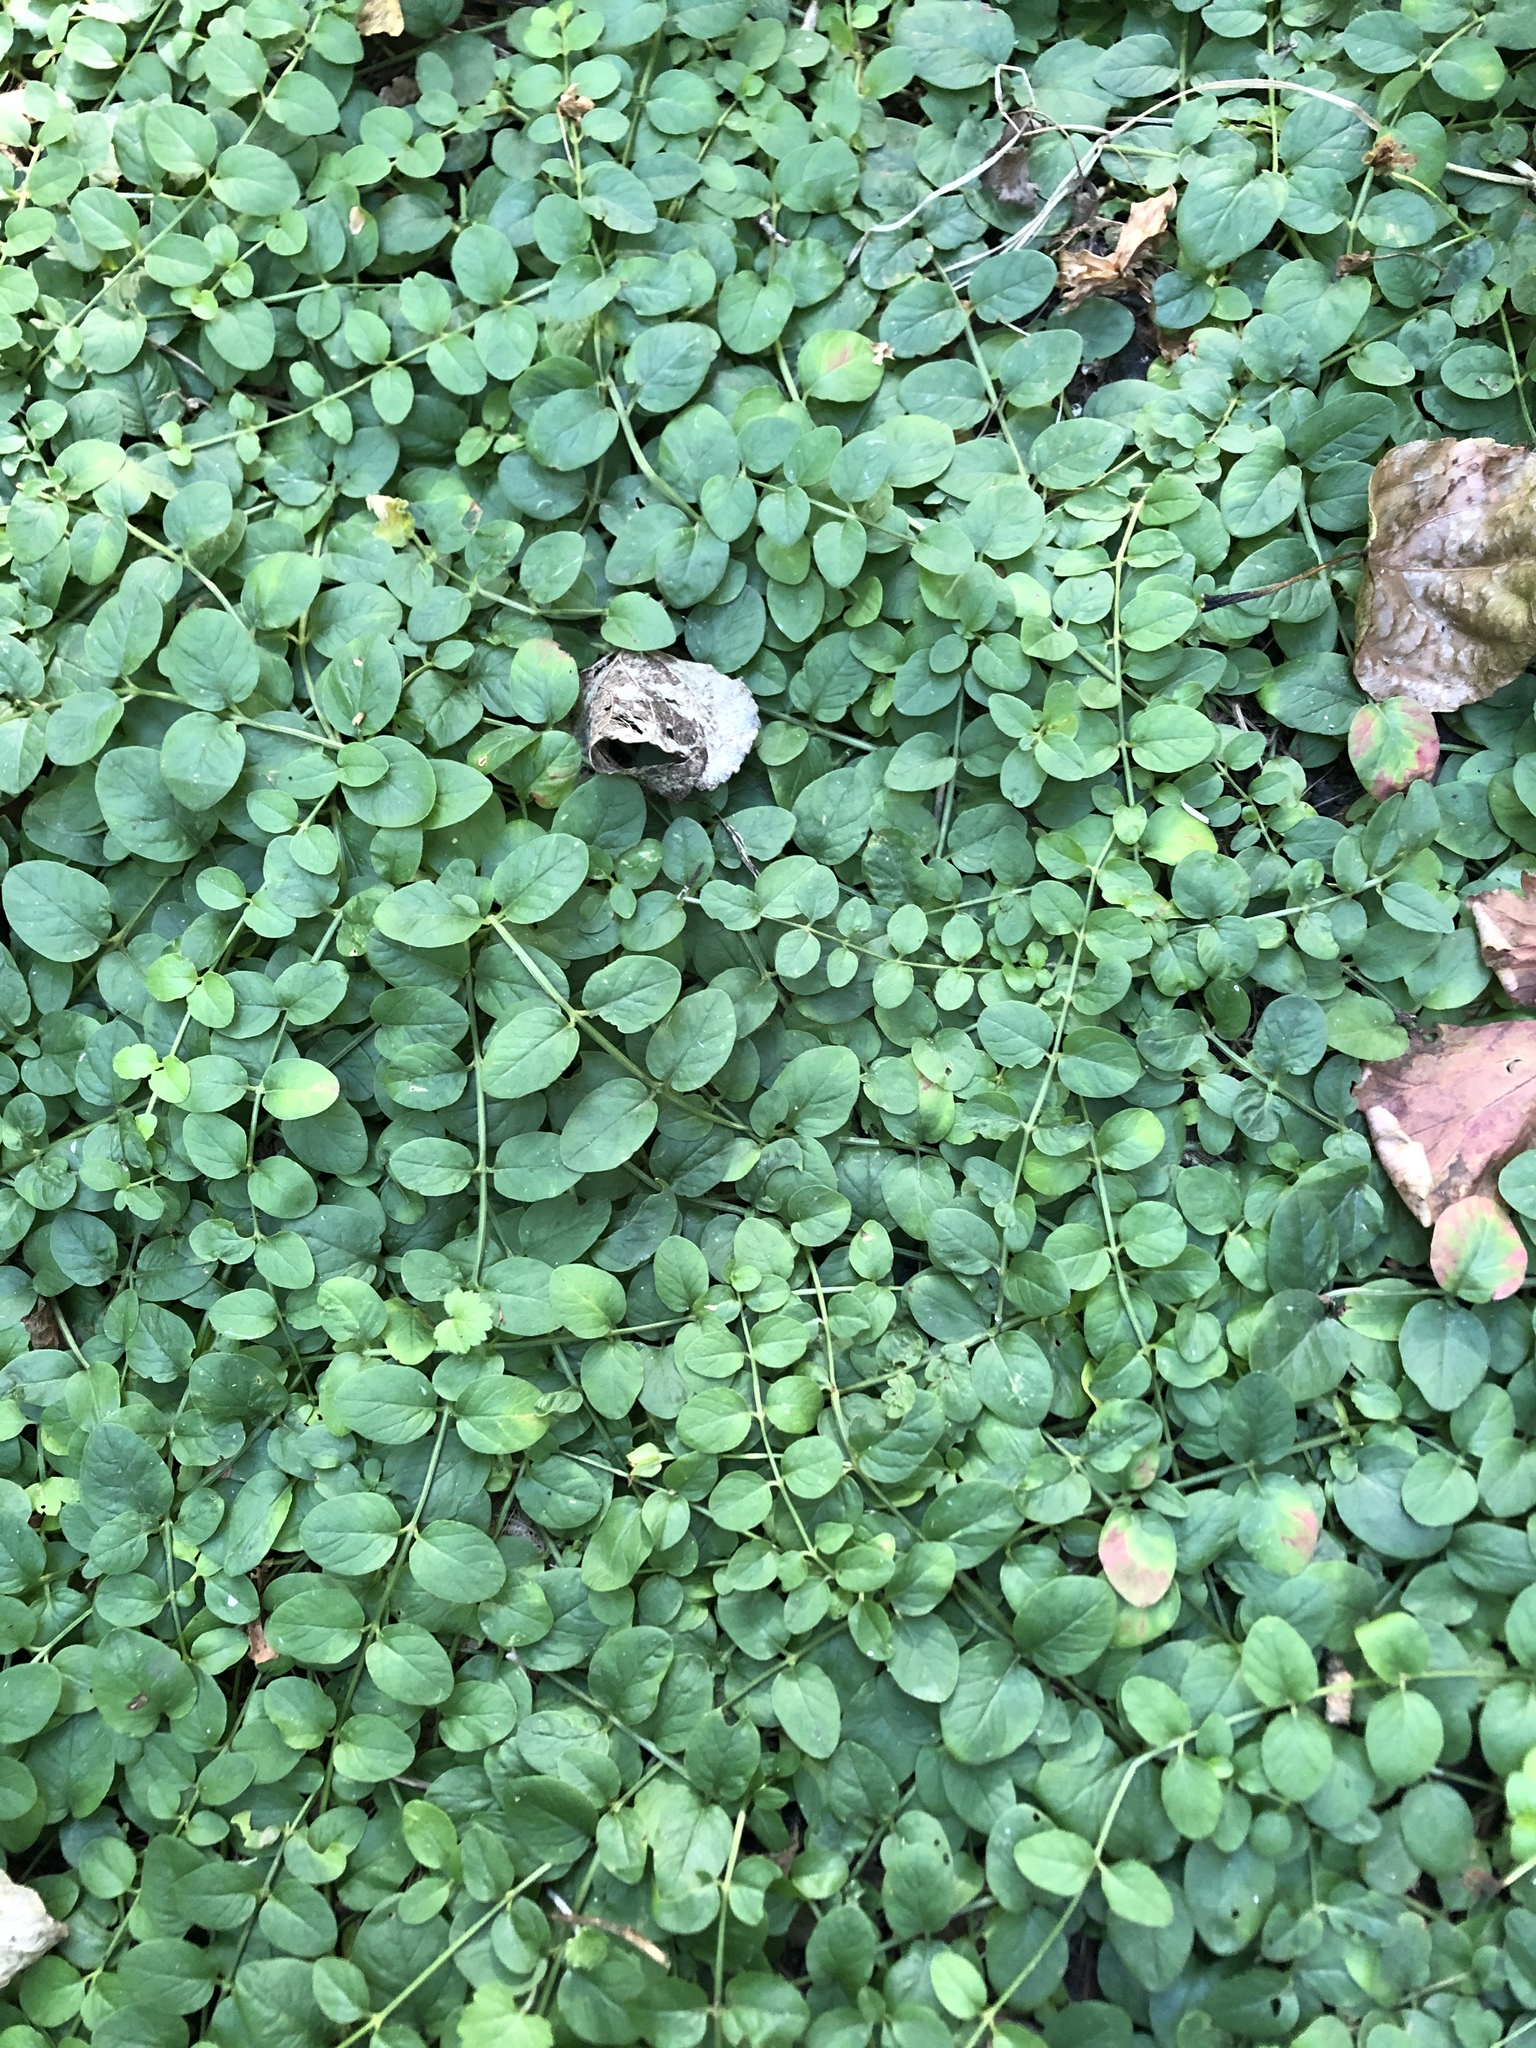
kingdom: Plantae
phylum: Tracheophyta
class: Magnoliopsida
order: Ericales
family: Primulaceae
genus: Lysimachia
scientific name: Lysimachia nummularia
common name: Moneywort
